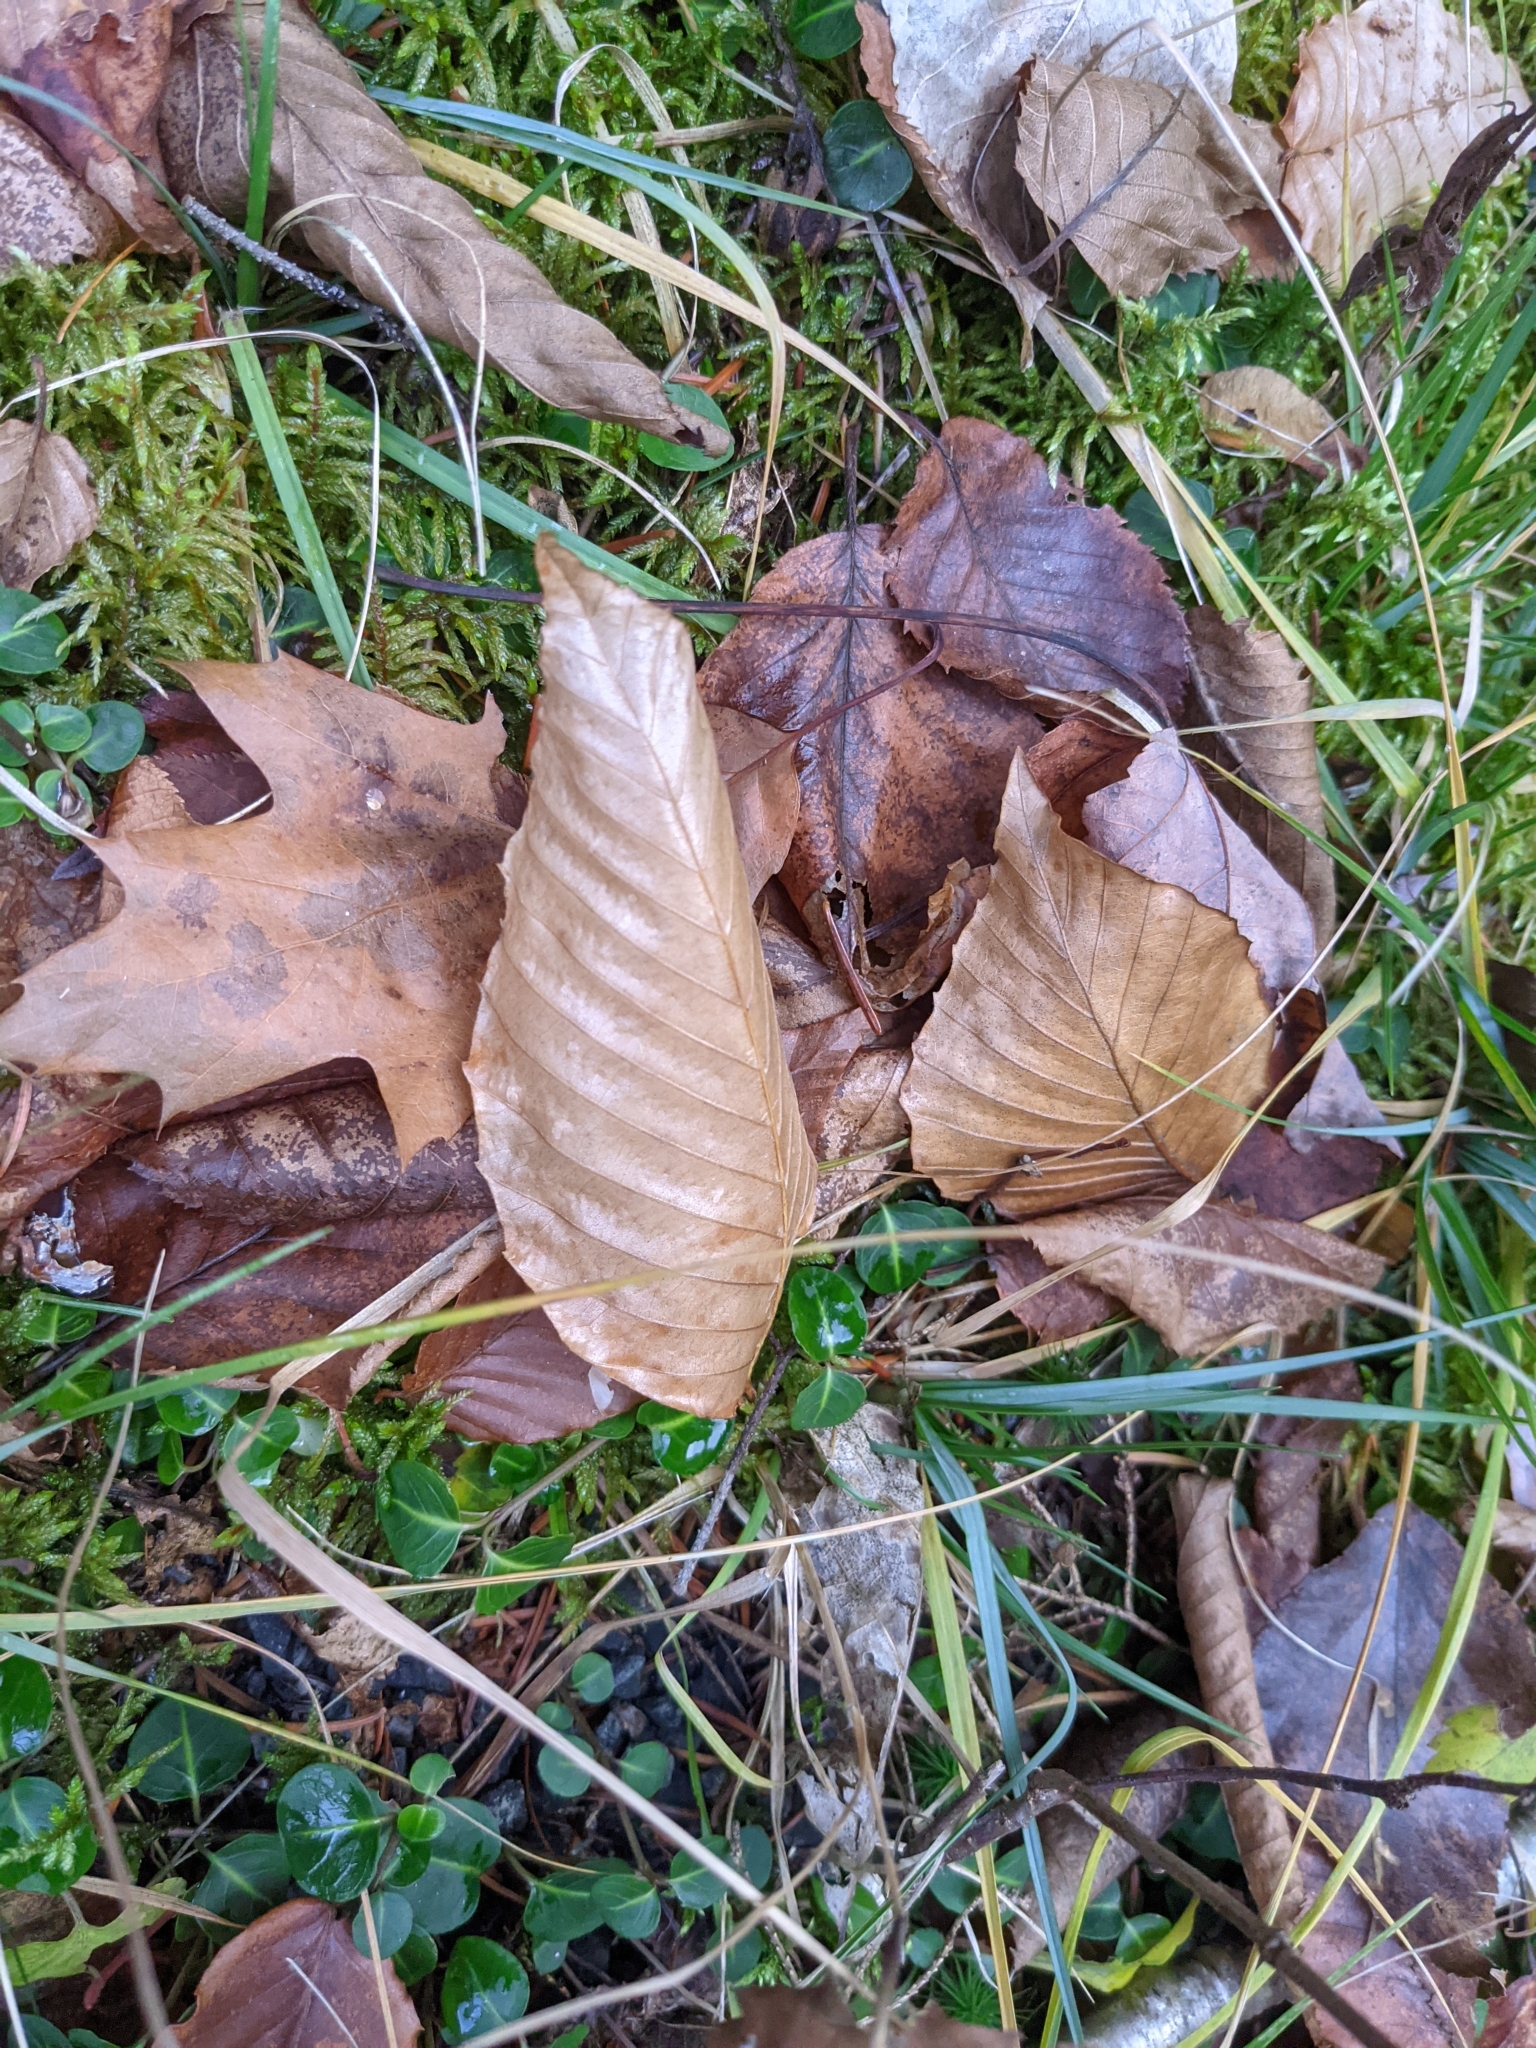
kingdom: Plantae
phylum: Tracheophyta
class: Magnoliopsida
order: Fagales
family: Fagaceae
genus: Fagus
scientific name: Fagus grandifolia
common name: American beech
